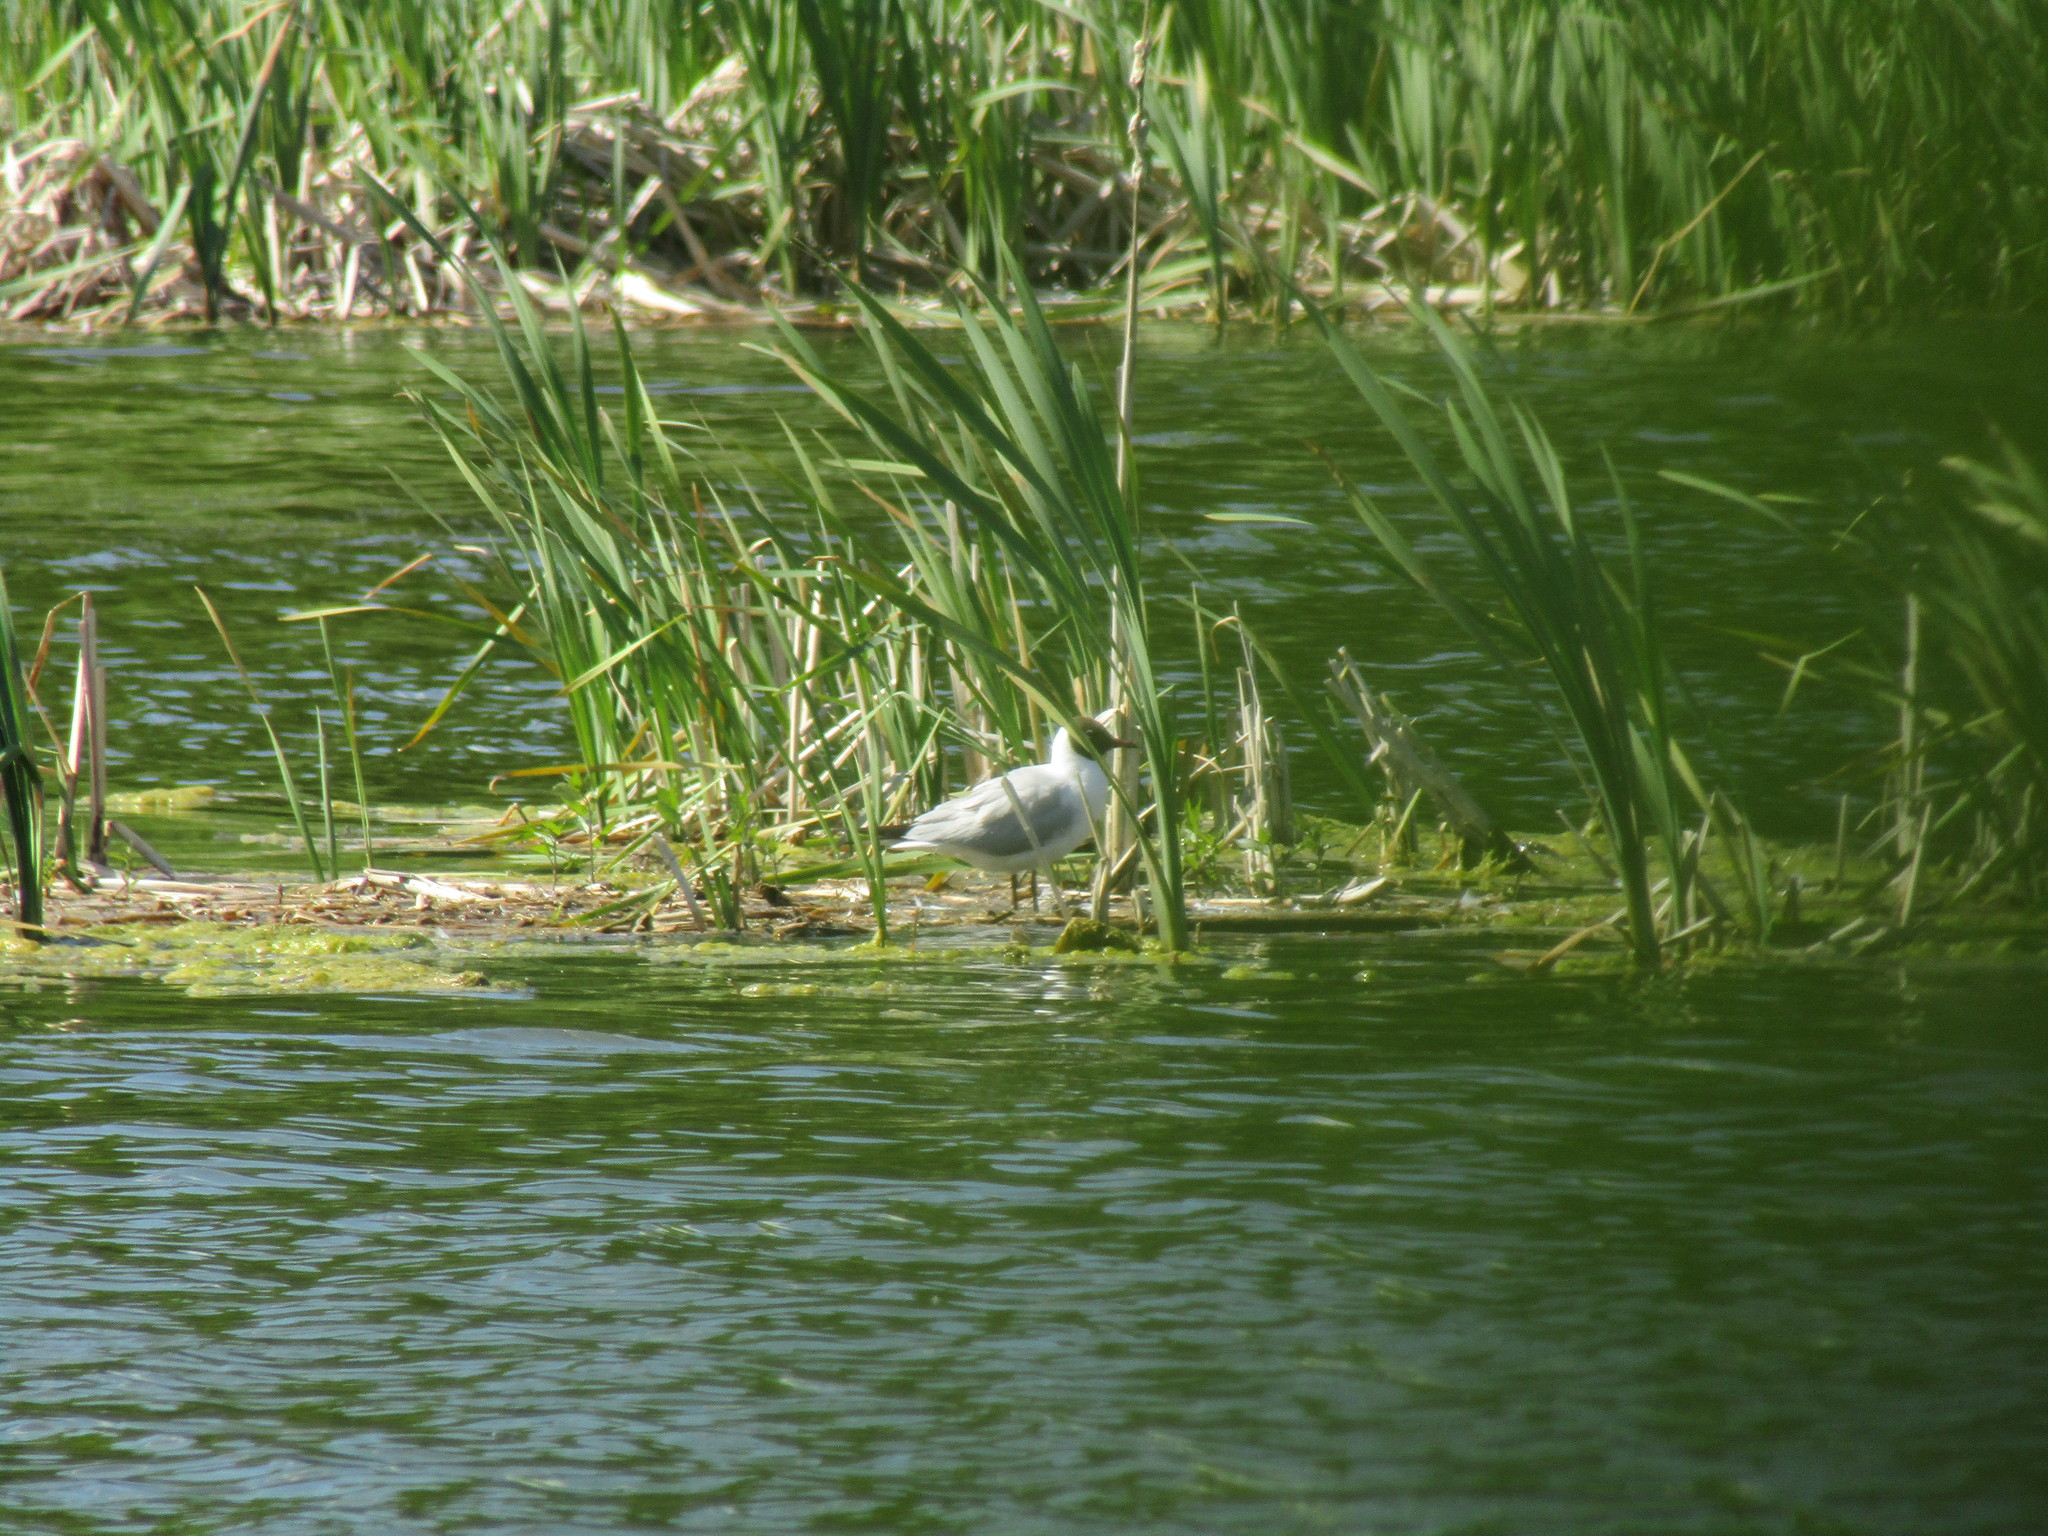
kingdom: Animalia
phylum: Chordata
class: Aves
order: Charadriiformes
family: Laridae
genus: Chroicocephalus
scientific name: Chroicocephalus ridibundus
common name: Black-headed gull
